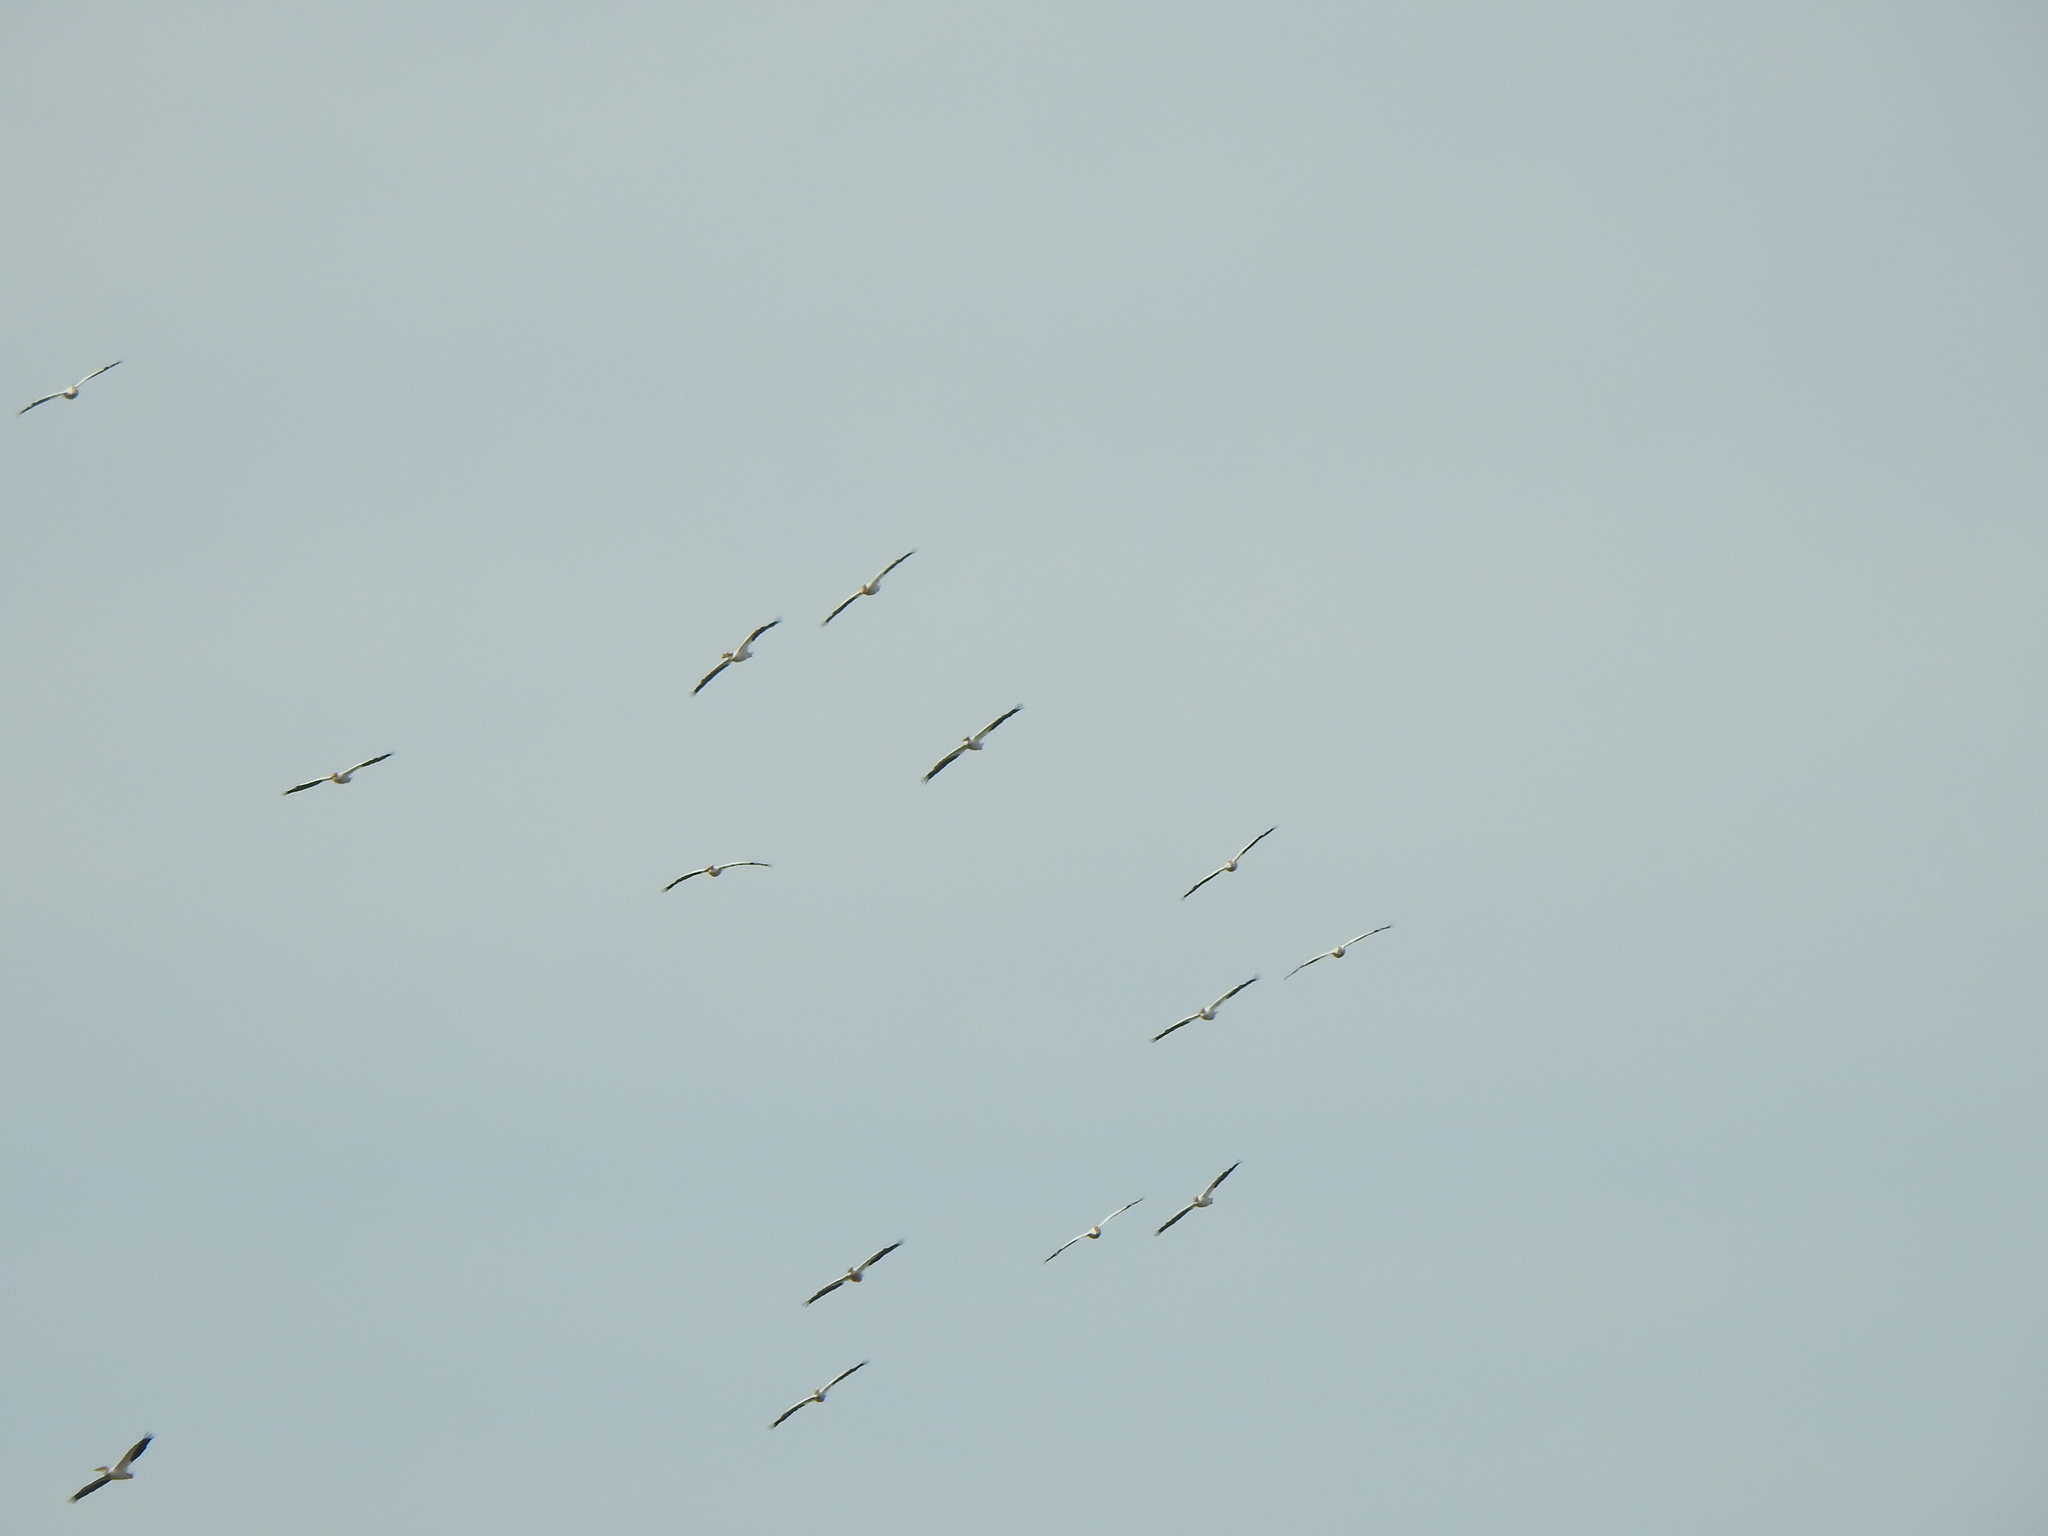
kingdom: Animalia
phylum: Chordata
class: Aves
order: Pelecaniformes
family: Pelecanidae
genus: Pelecanus
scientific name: Pelecanus erythrorhynchos
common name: American white pelican
